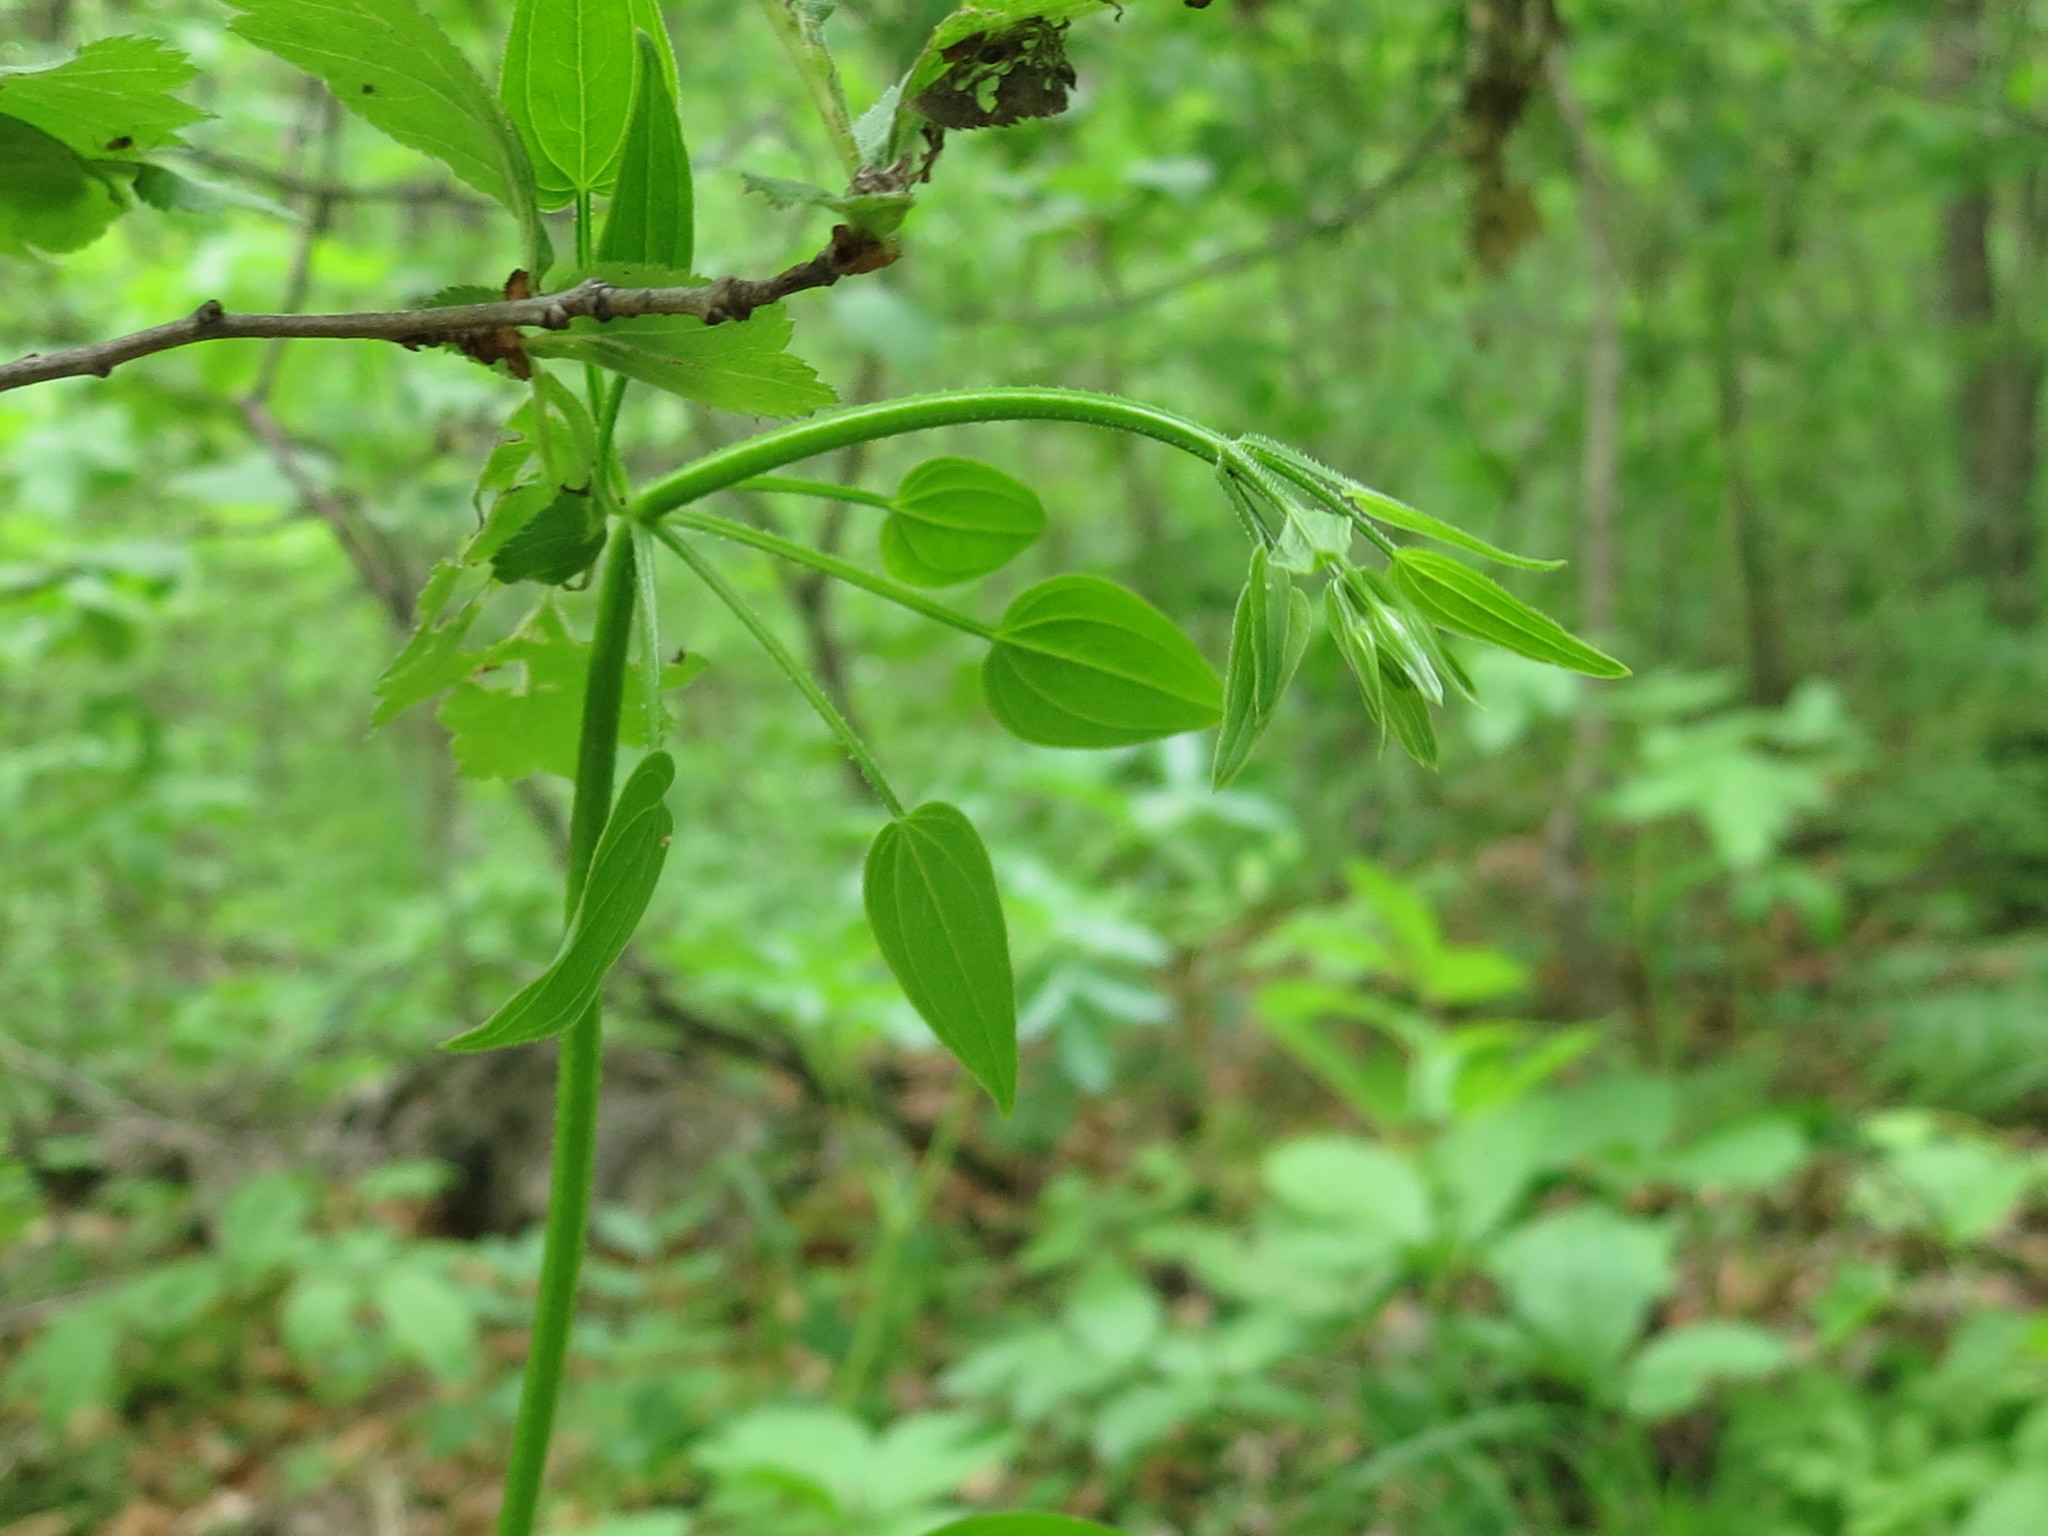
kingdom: Plantae
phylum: Tracheophyta
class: Magnoliopsida
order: Gentianales
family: Rubiaceae
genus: Rubia
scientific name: Rubia cordifolia
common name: Indian madder
